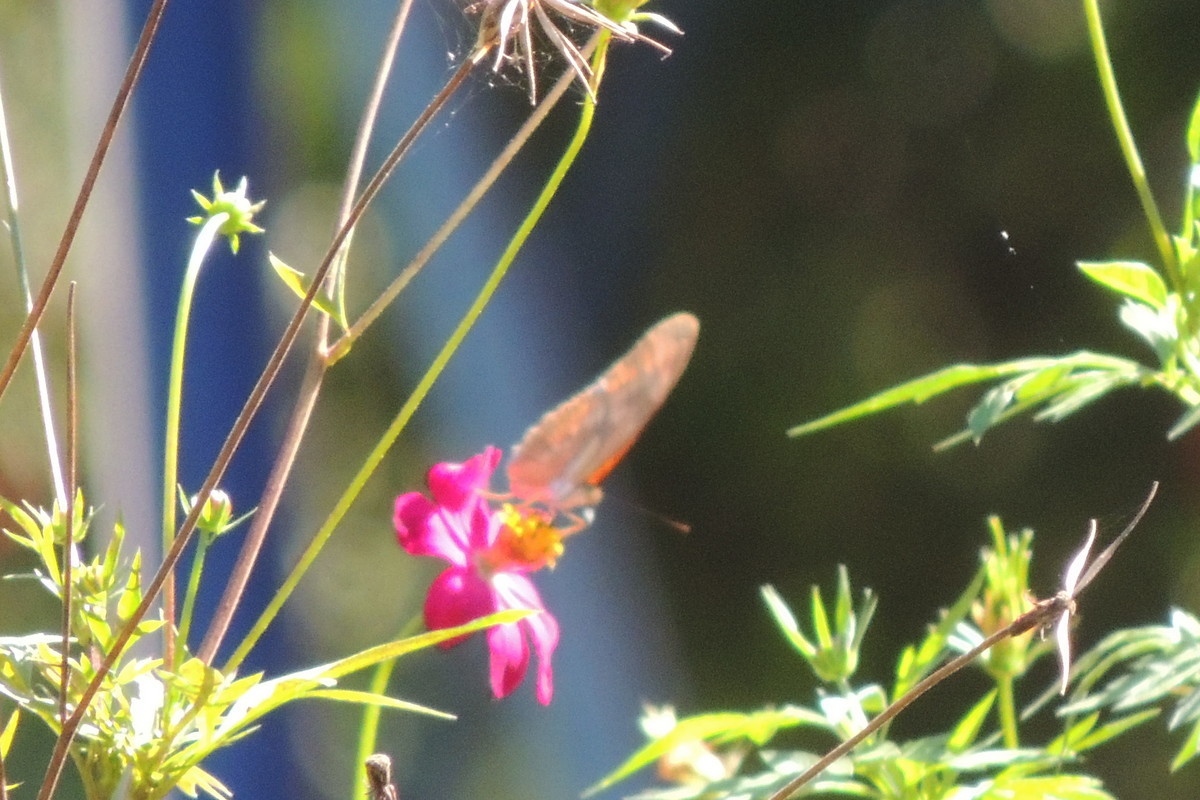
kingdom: Animalia
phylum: Arthropoda
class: Insecta
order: Lepidoptera
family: Nymphalidae
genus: Dryas
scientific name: Dryas iulia
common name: Flambeau
